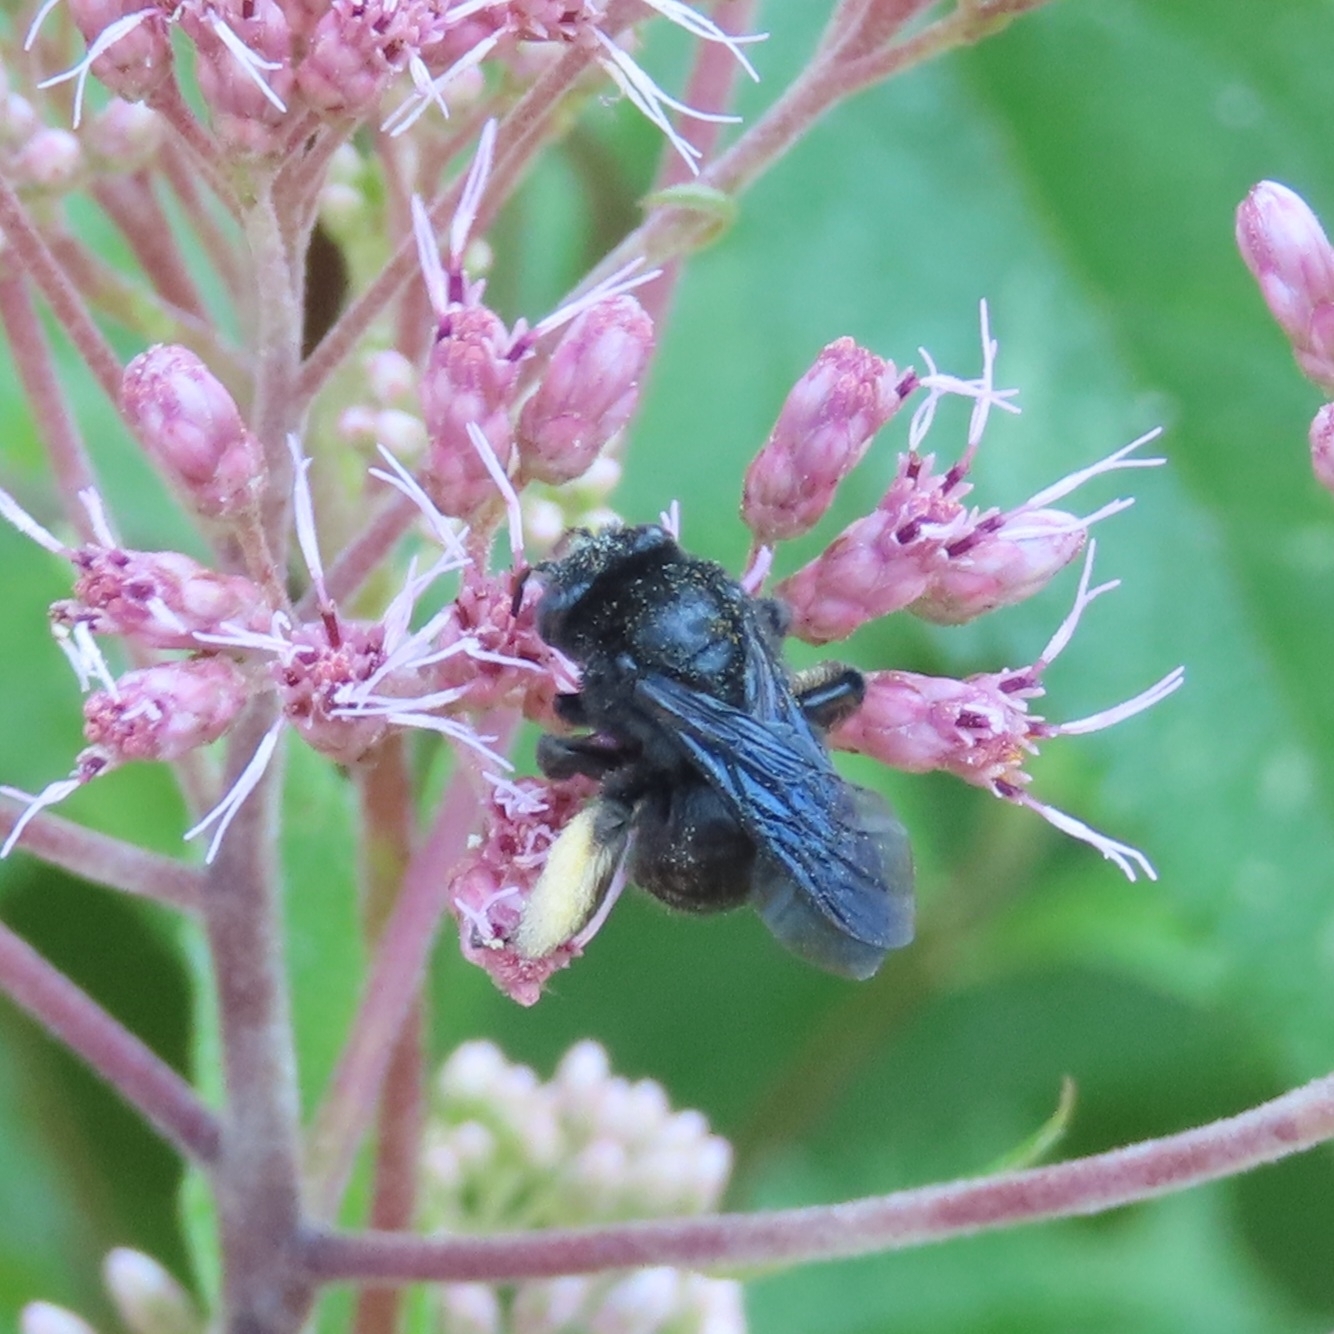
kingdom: Animalia
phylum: Arthropoda
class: Insecta
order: Hymenoptera
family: Apidae
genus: Melissodes
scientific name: Melissodes bimaculatus
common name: Two-spotted long-horned bee
